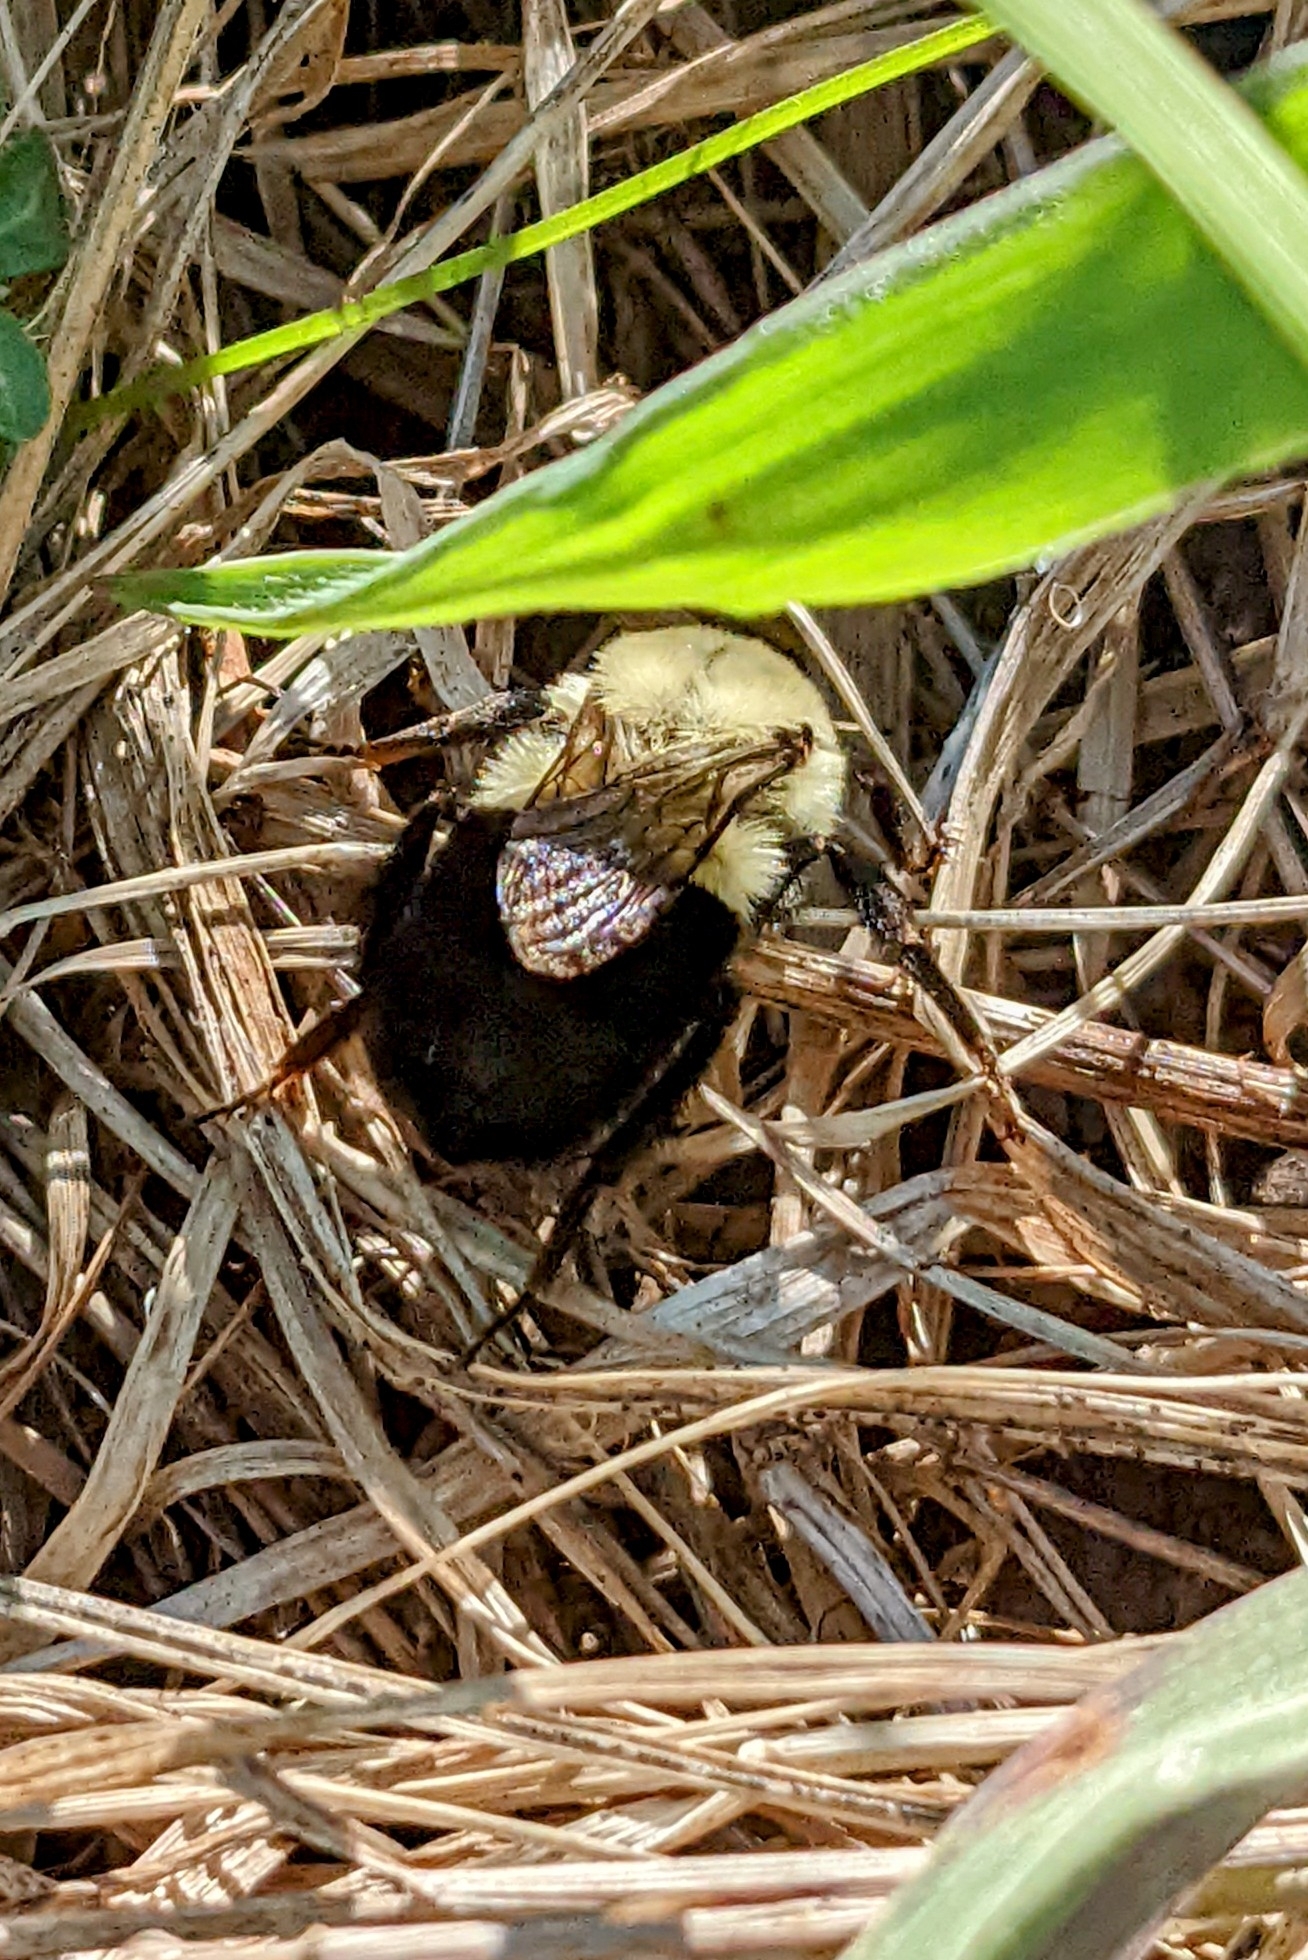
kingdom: Animalia
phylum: Arthropoda
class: Insecta
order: Hymenoptera
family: Apidae
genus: Bombus
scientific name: Bombus impatiens
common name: Common eastern bumble bee
